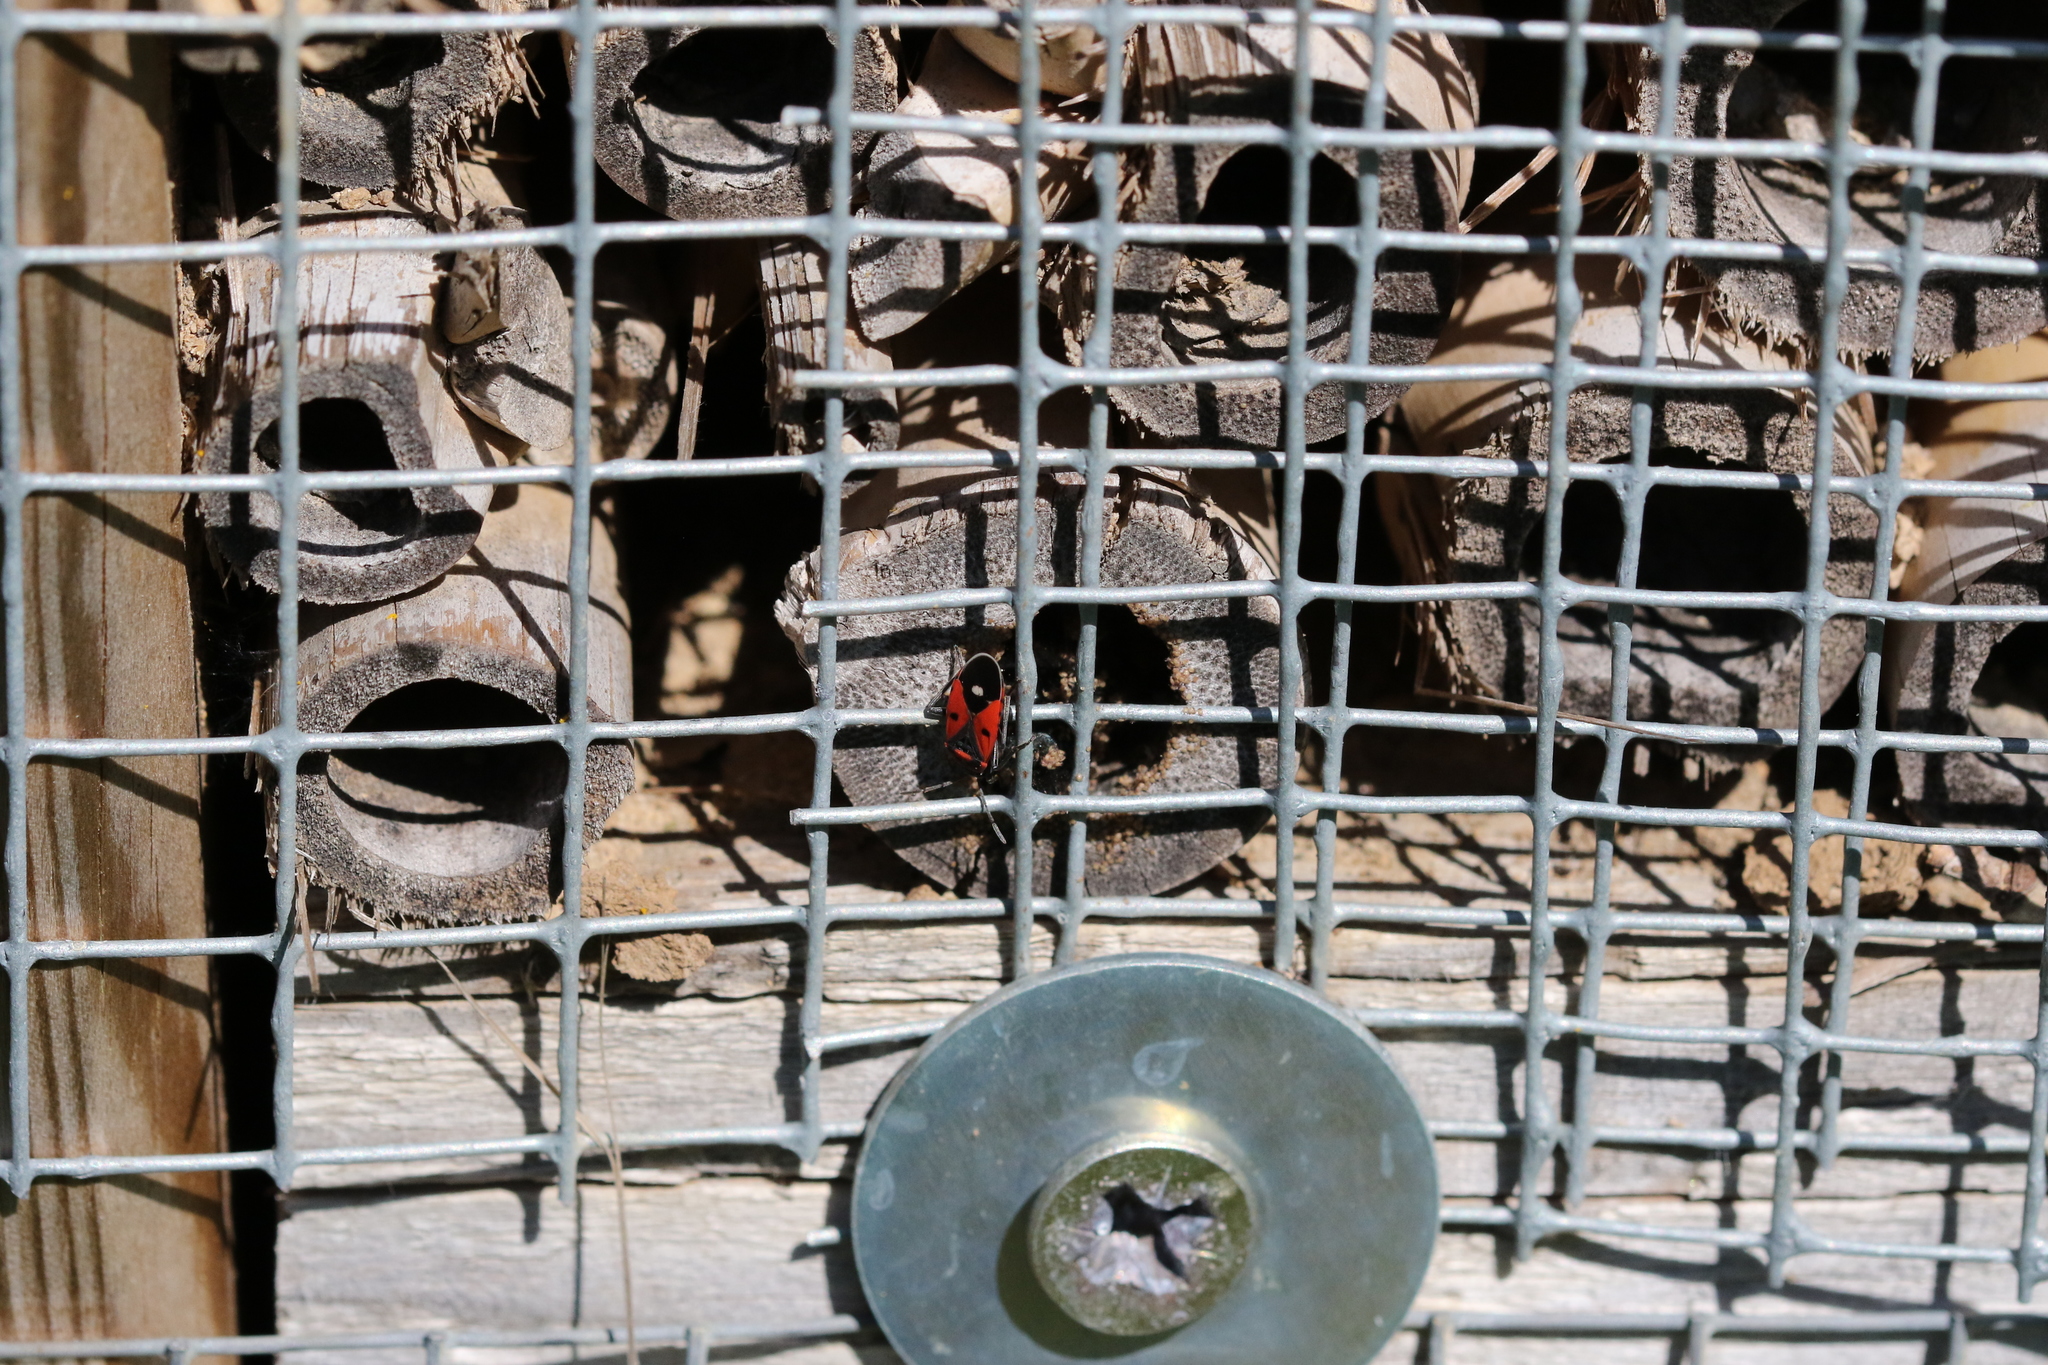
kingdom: Animalia
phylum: Arthropoda
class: Insecta
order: Hemiptera
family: Lygaeidae
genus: Melanocoryphus
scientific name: Melanocoryphus albomaculatus
